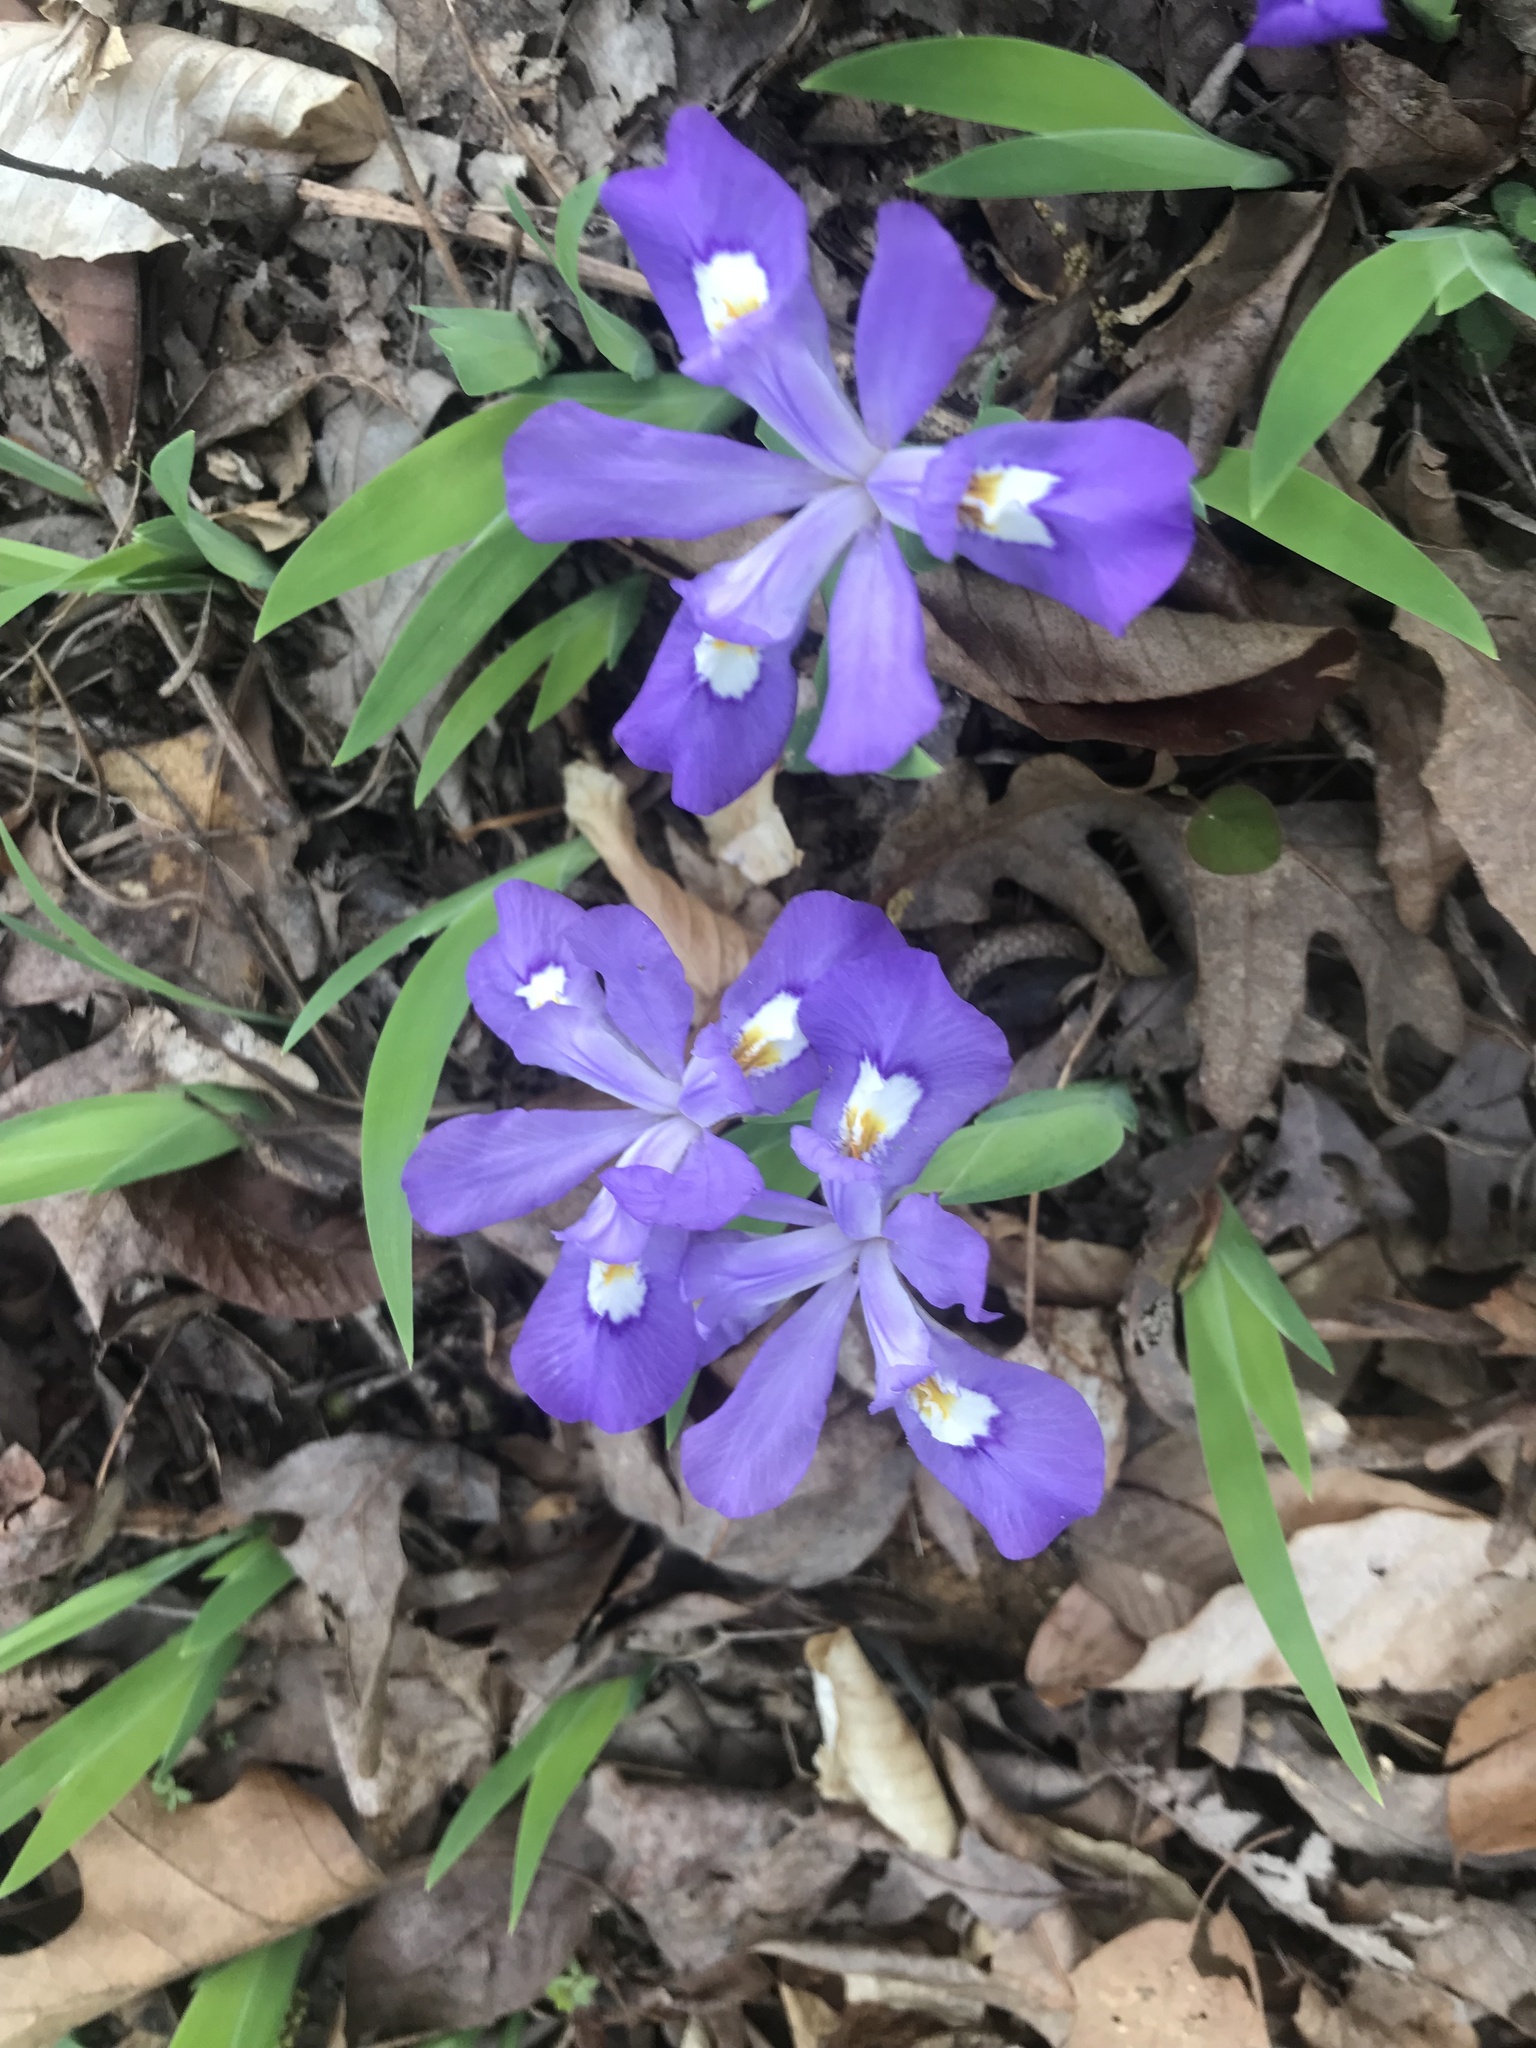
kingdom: Plantae
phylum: Tracheophyta
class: Liliopsida
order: Asparagales
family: Iridaceae
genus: Iris
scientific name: Iris cristata
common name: Crested iris
